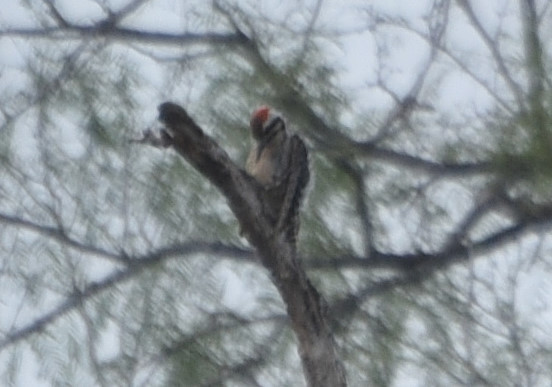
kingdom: Animalia
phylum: Chordata
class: Aves
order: Piciformes
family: Picidae
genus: Dryobates
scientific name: Dryobates scalaris
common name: Ladder-backed woodpecker
